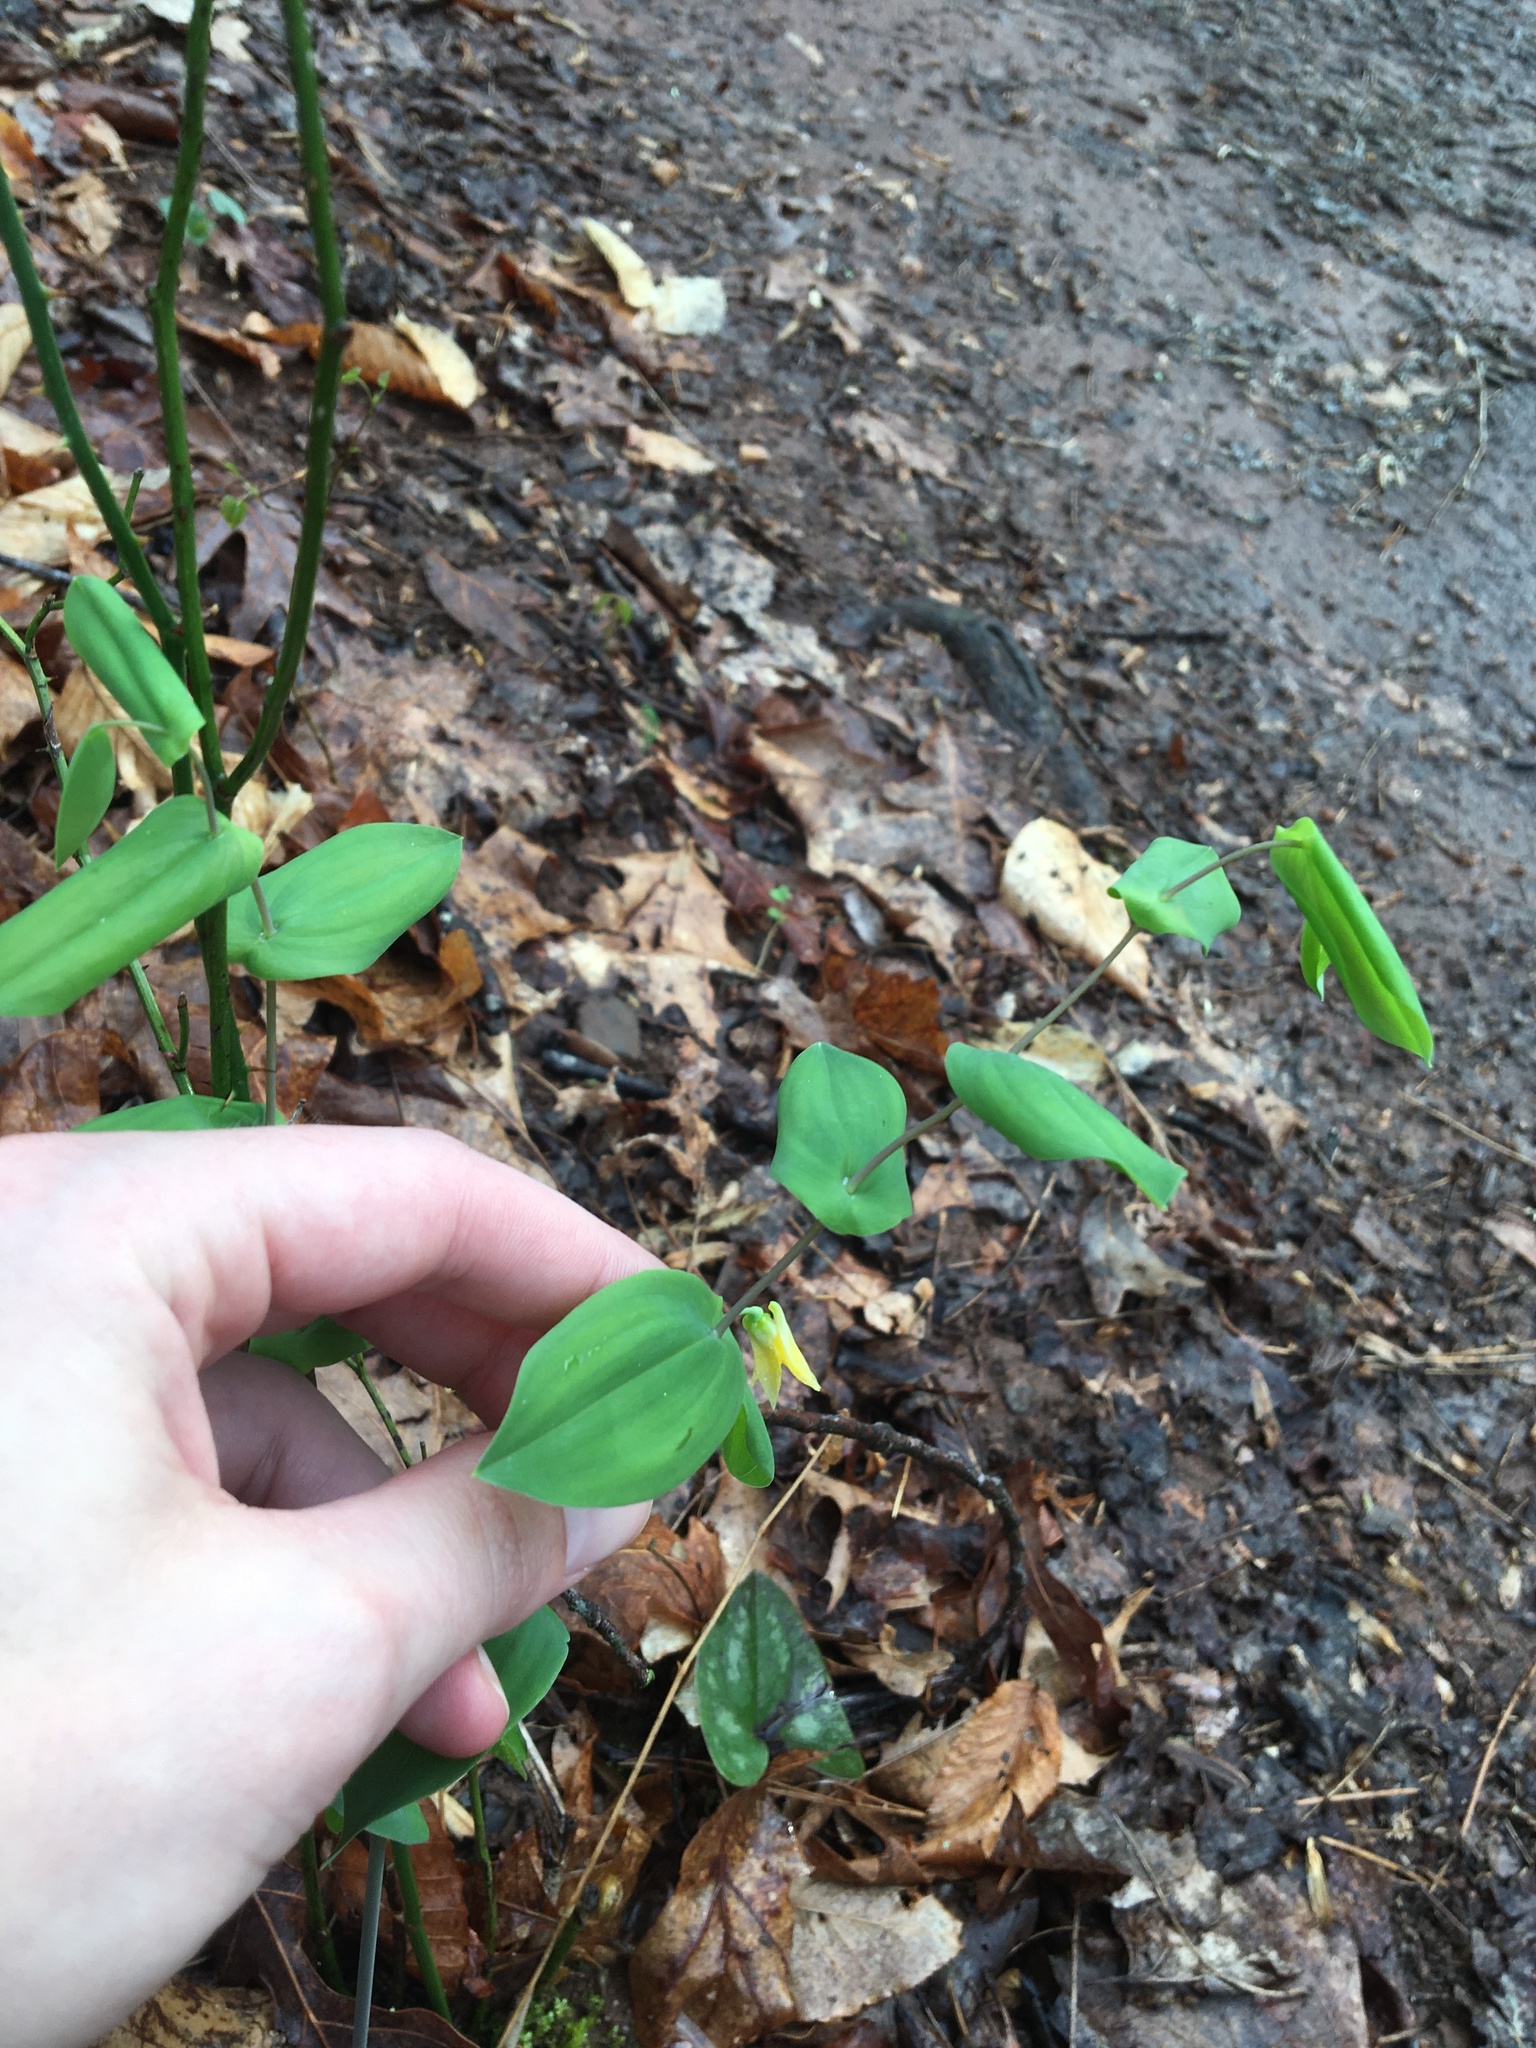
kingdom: Plantae
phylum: Tracheophyta
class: Liliopsida
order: Liliales
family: Colchicaceae
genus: Uvularia
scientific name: Uvularia perfoliata
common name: Perfoliate bellwort
